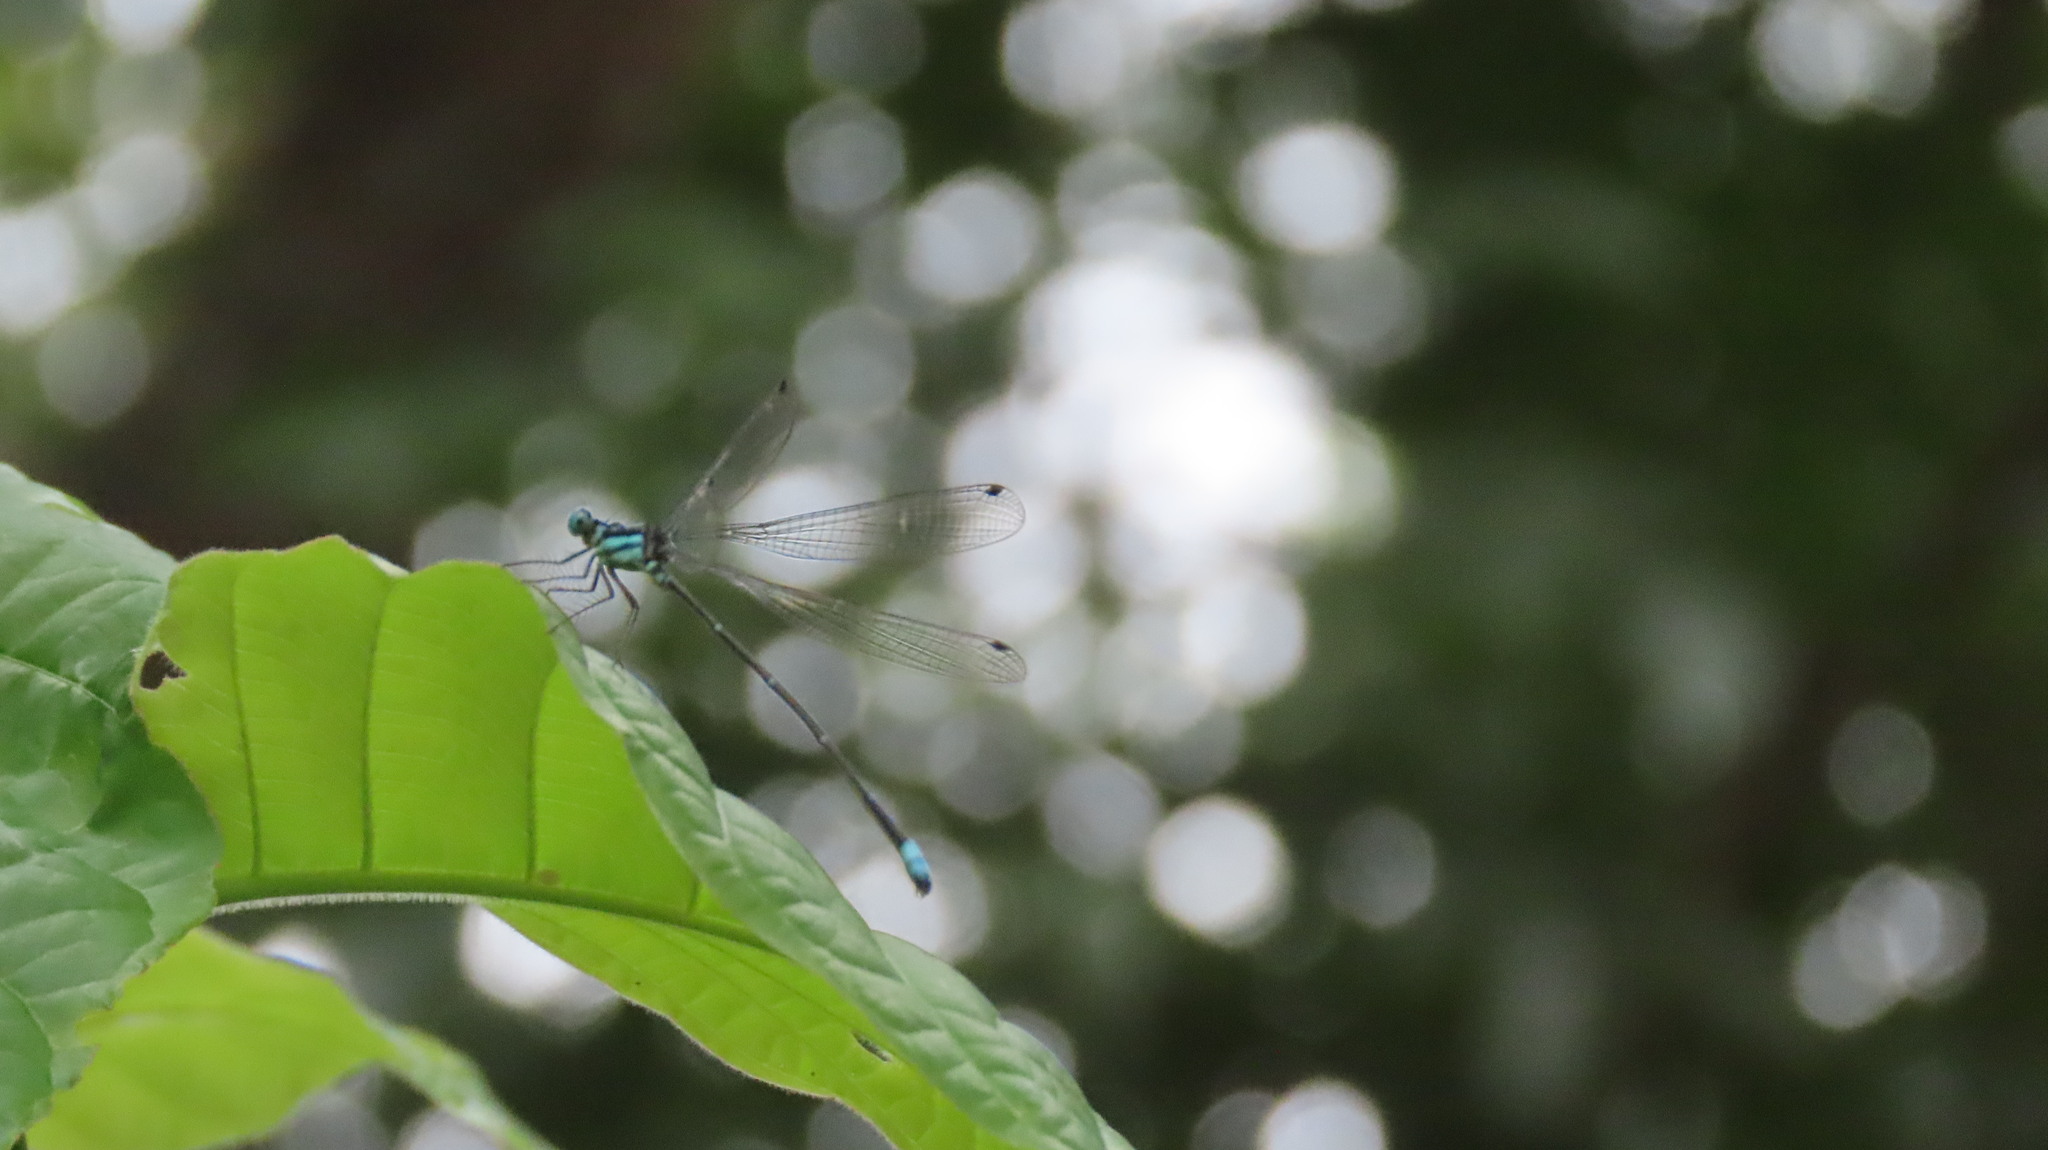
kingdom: Animalia
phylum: Arthropoda
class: Insecta
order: Odonata
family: Platycnemididae
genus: Caconeura
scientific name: Caconeura risi
